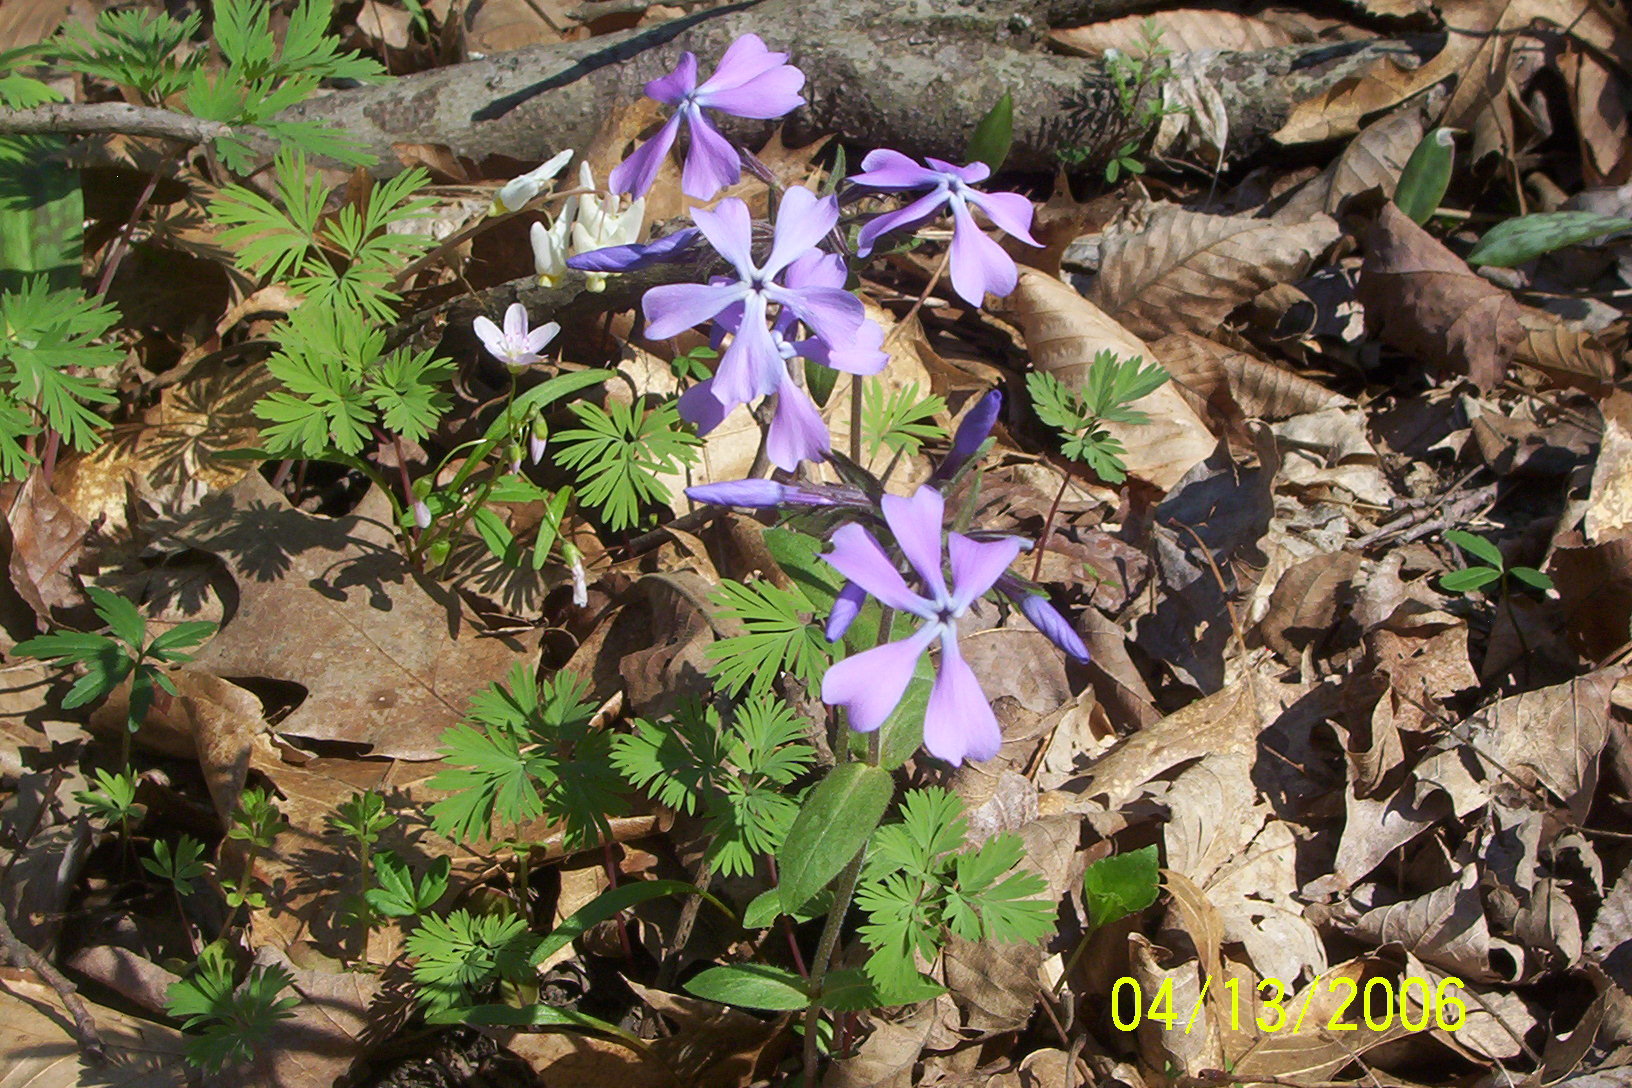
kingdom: Plantae
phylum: Tracheophyta
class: Magnoliopsida
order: Ericales
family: Polemoniaceae
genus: Phlox
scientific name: Phlox divaricata
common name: Blue phlox
